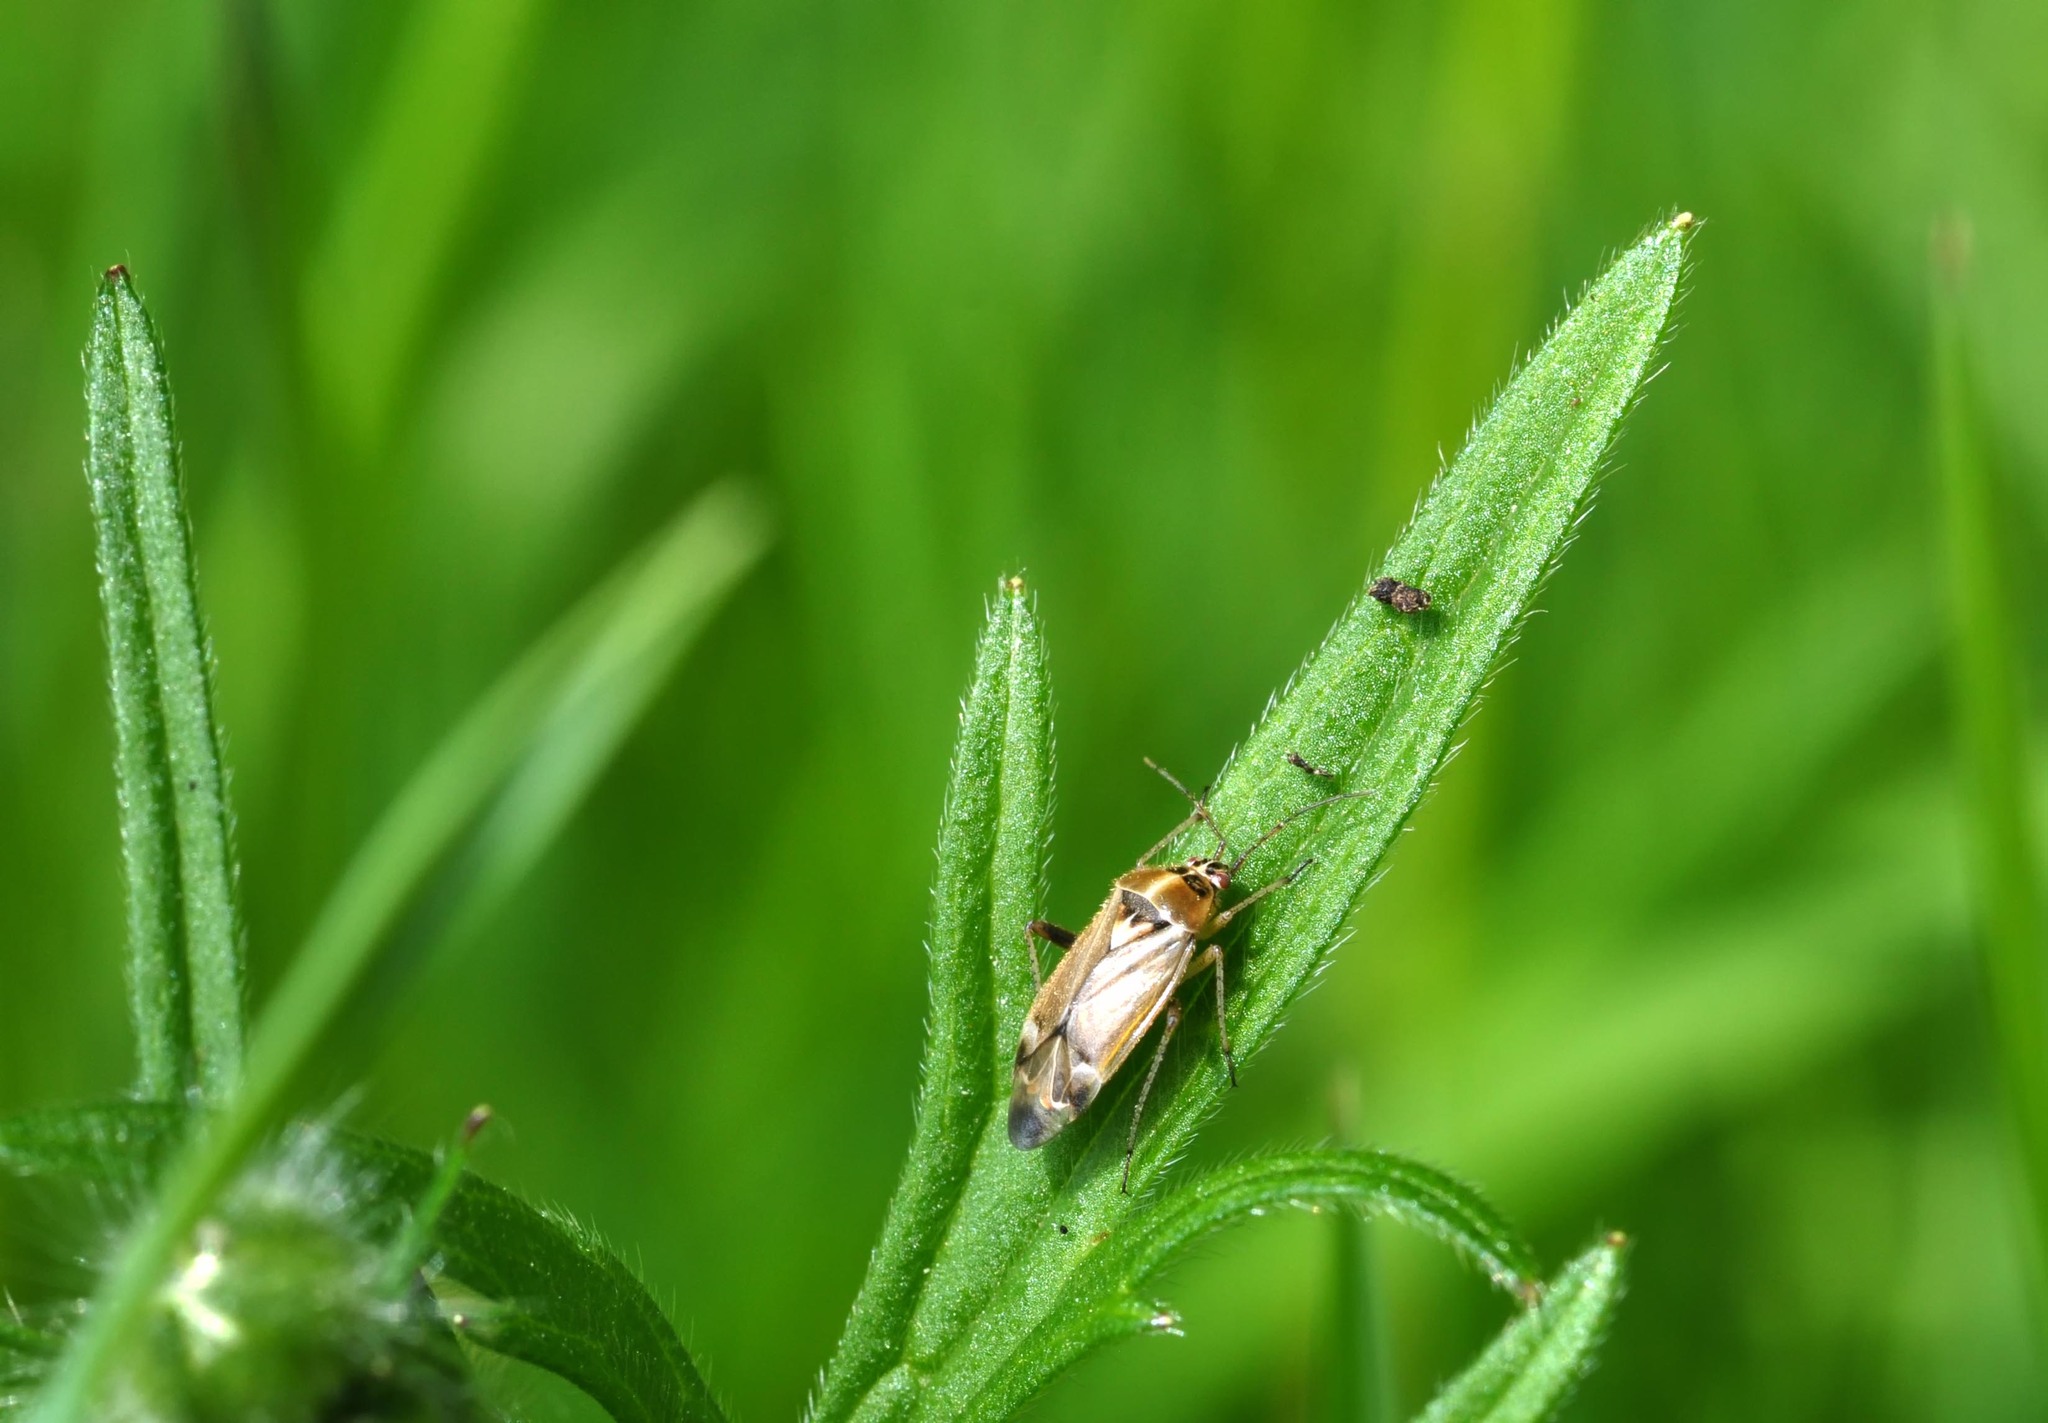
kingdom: Animalia
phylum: Arthropoda
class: Insecta
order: Hemiptera
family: Miridae
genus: Harpocera
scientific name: Harpocera thoracica
